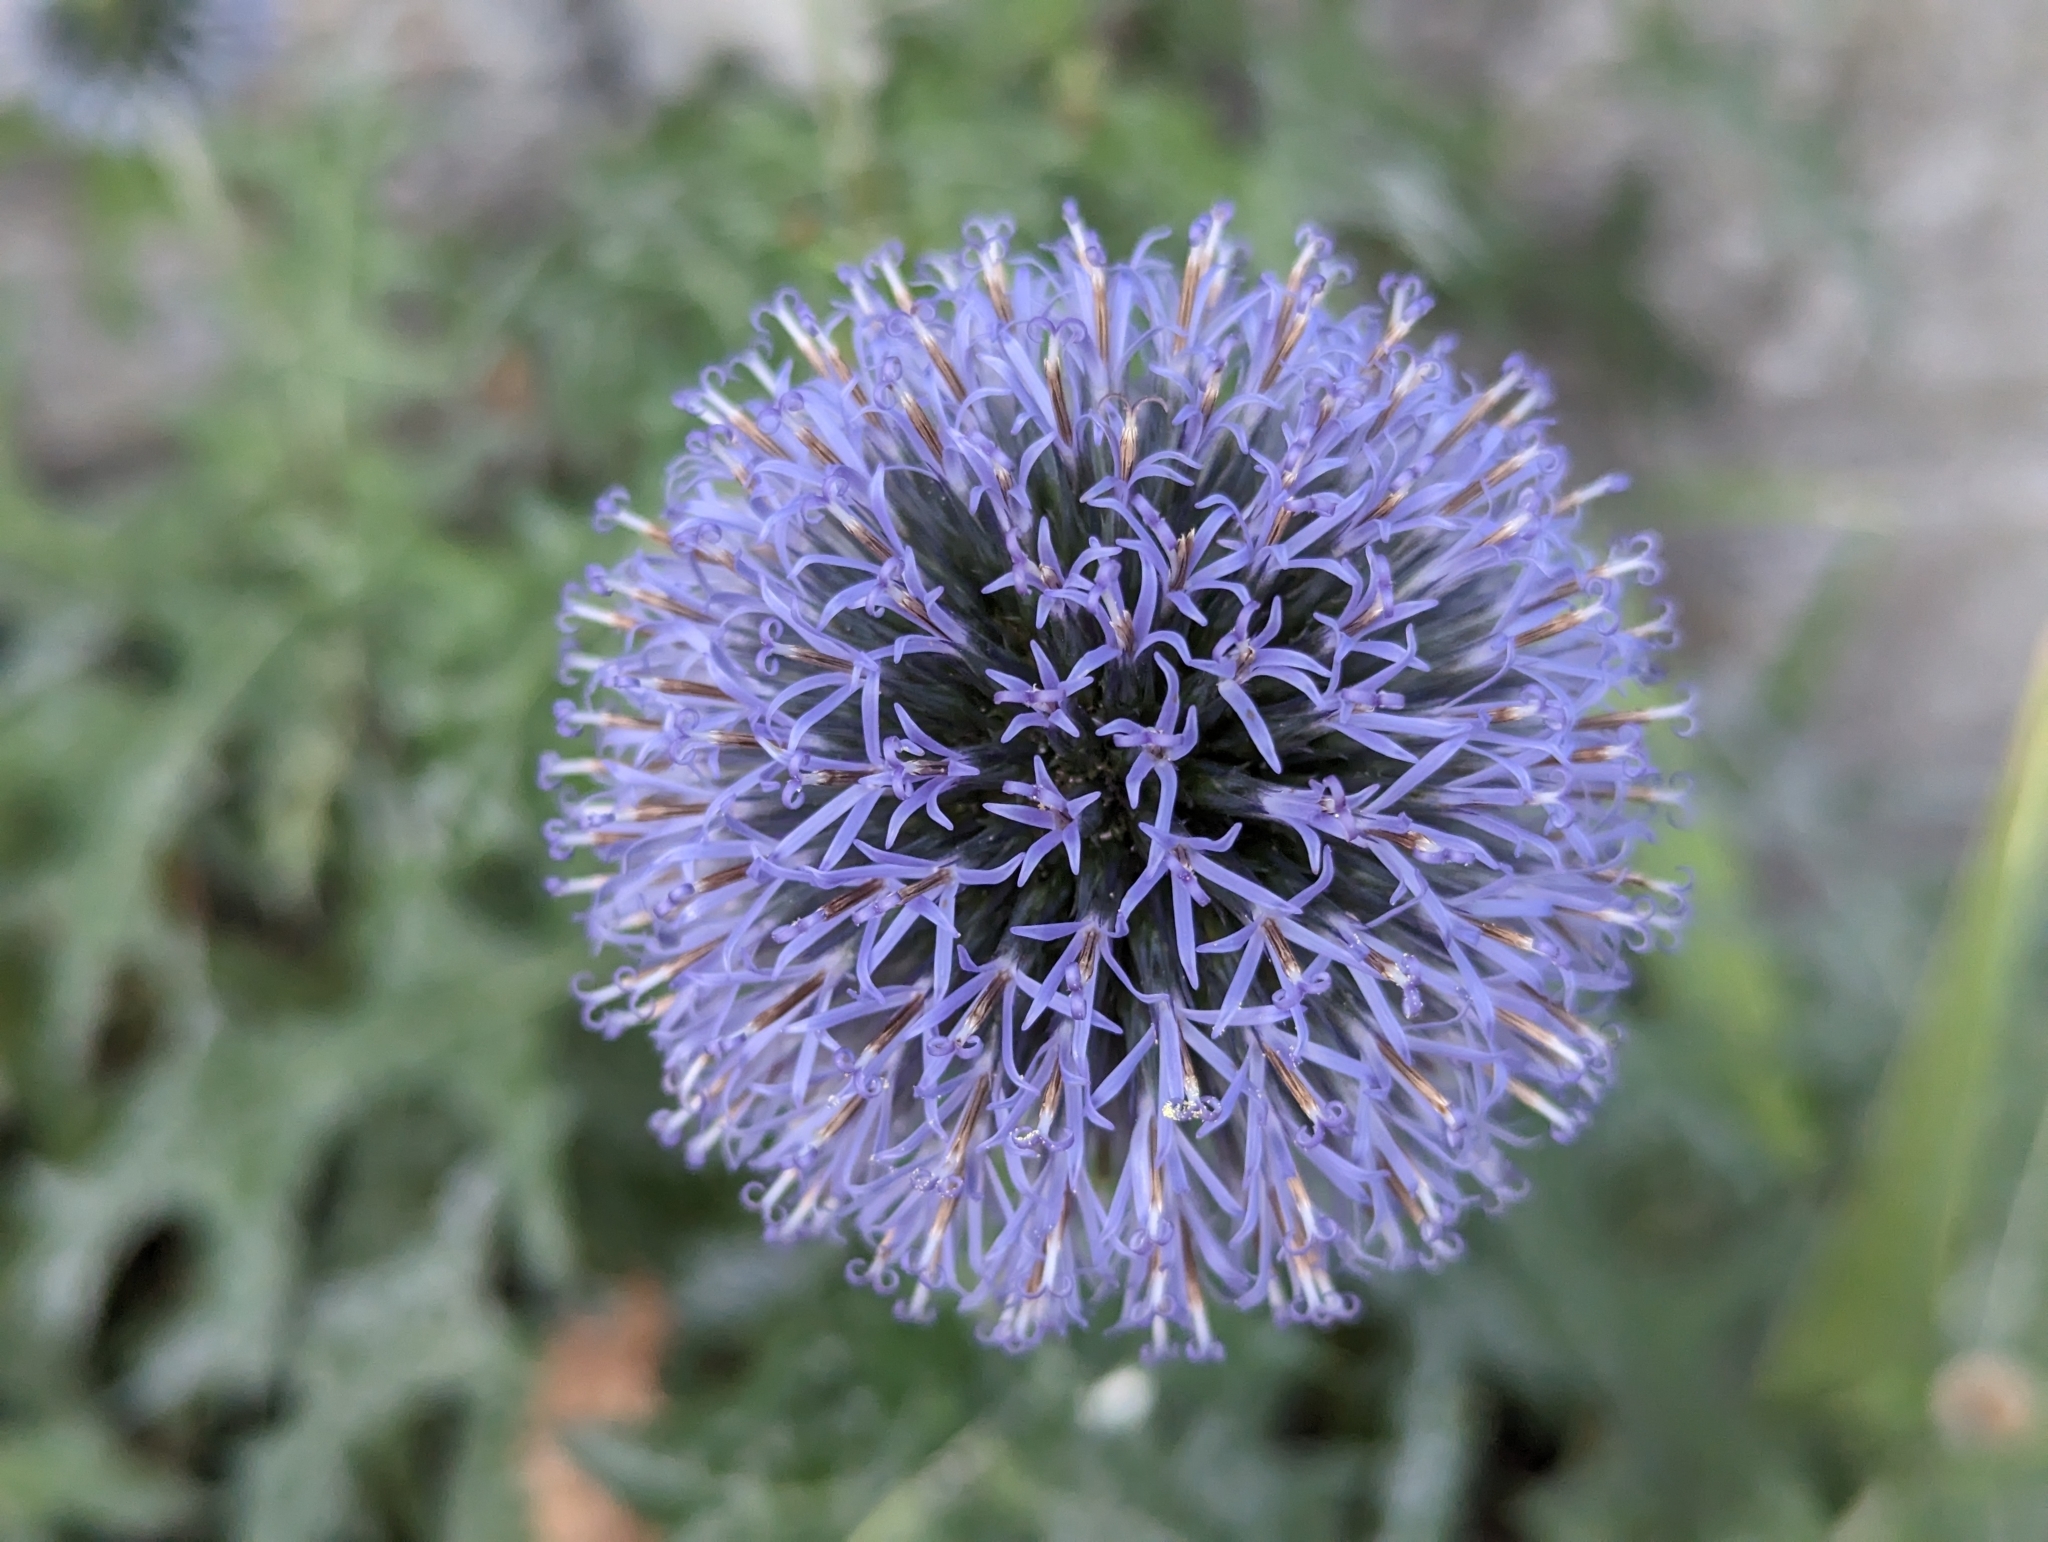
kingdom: Plantae
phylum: Tracheophyta
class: Magnoliopsida
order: Asterales
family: Asteraceae
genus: Echinops
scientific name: Echinops bannaticus
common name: Blue globe-thistle
